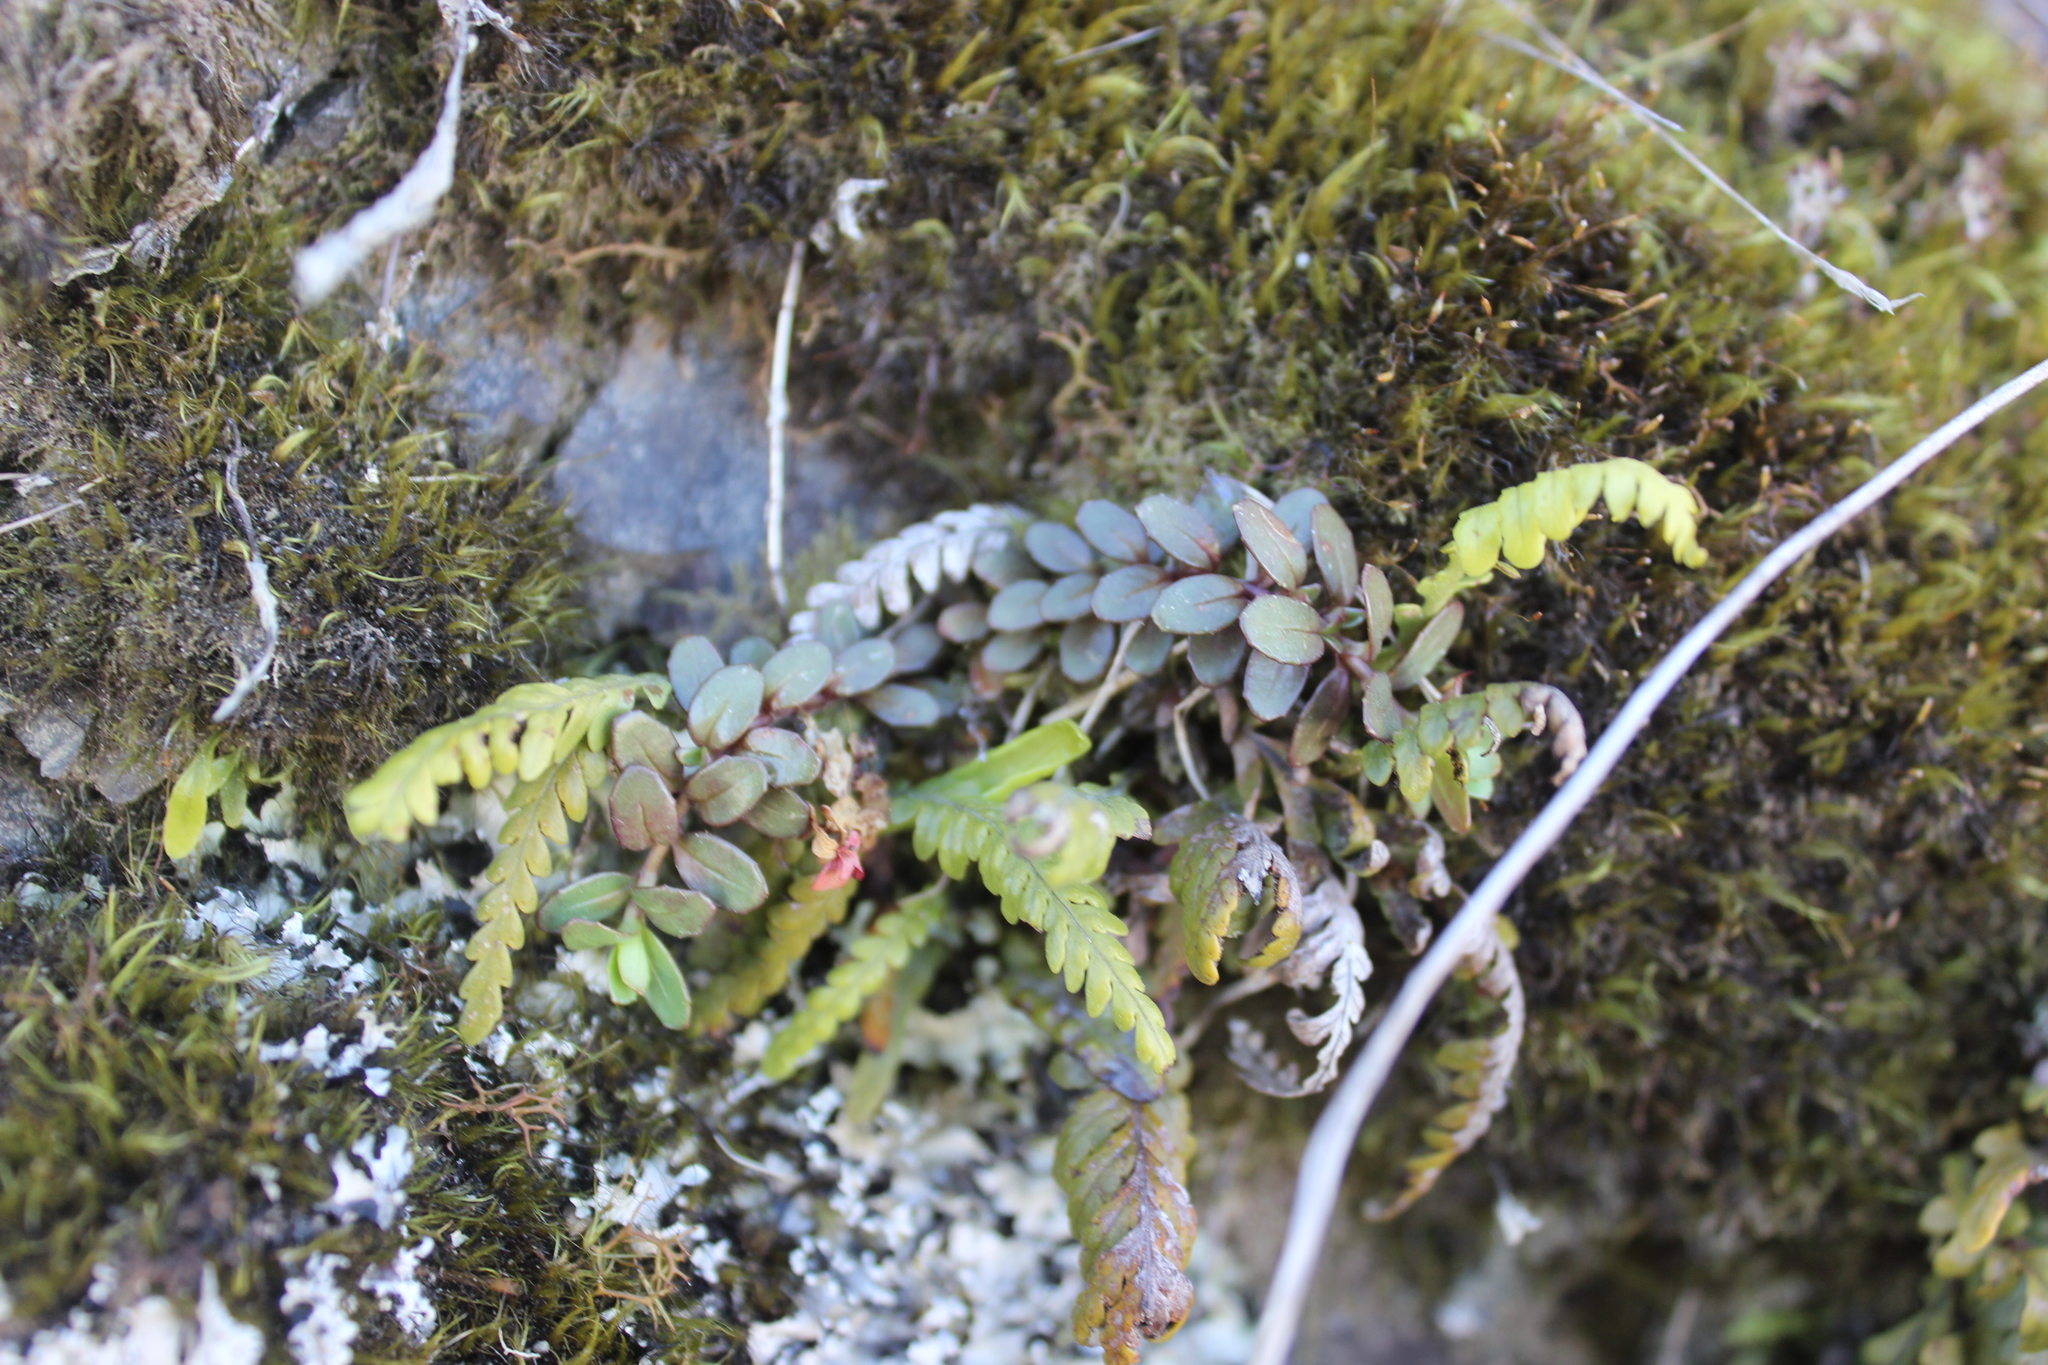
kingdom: Plantae
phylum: Tracheophyta
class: Magnoliopsida
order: Myrtales
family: Onagraceae
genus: Epilobium
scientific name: Epilobium alsinoides
